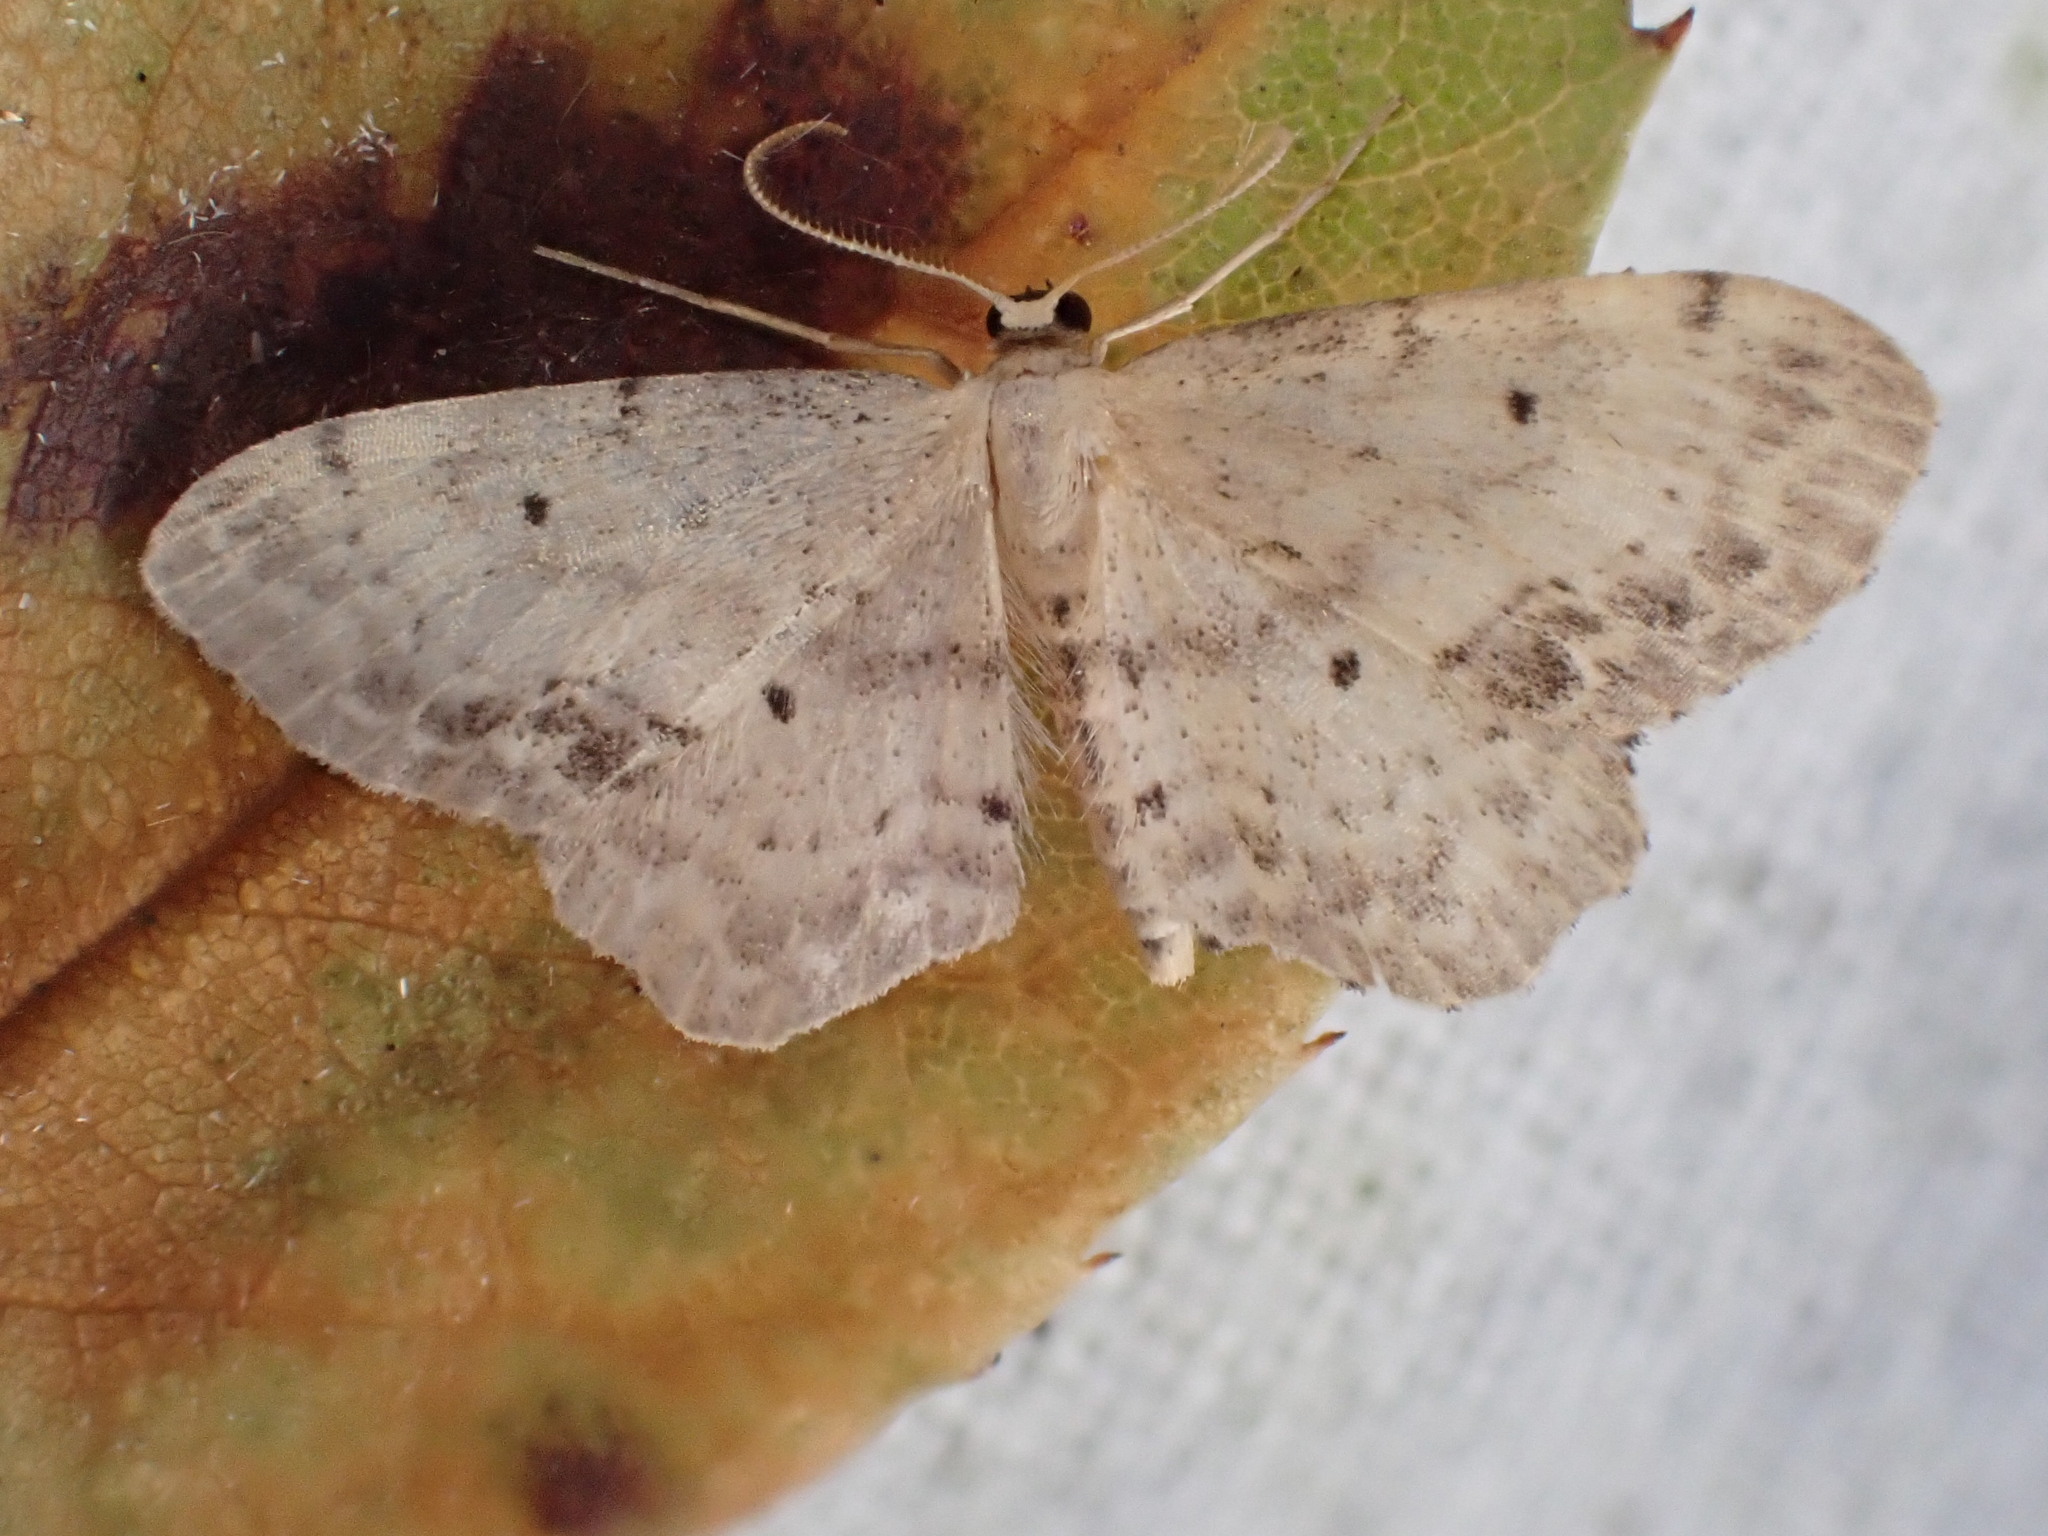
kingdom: Animalia
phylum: Arthropoda
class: Insecta
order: Lepidoptera
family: Geometridae
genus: Idaea
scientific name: Idaea dimidiata
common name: Single-dotted wave
